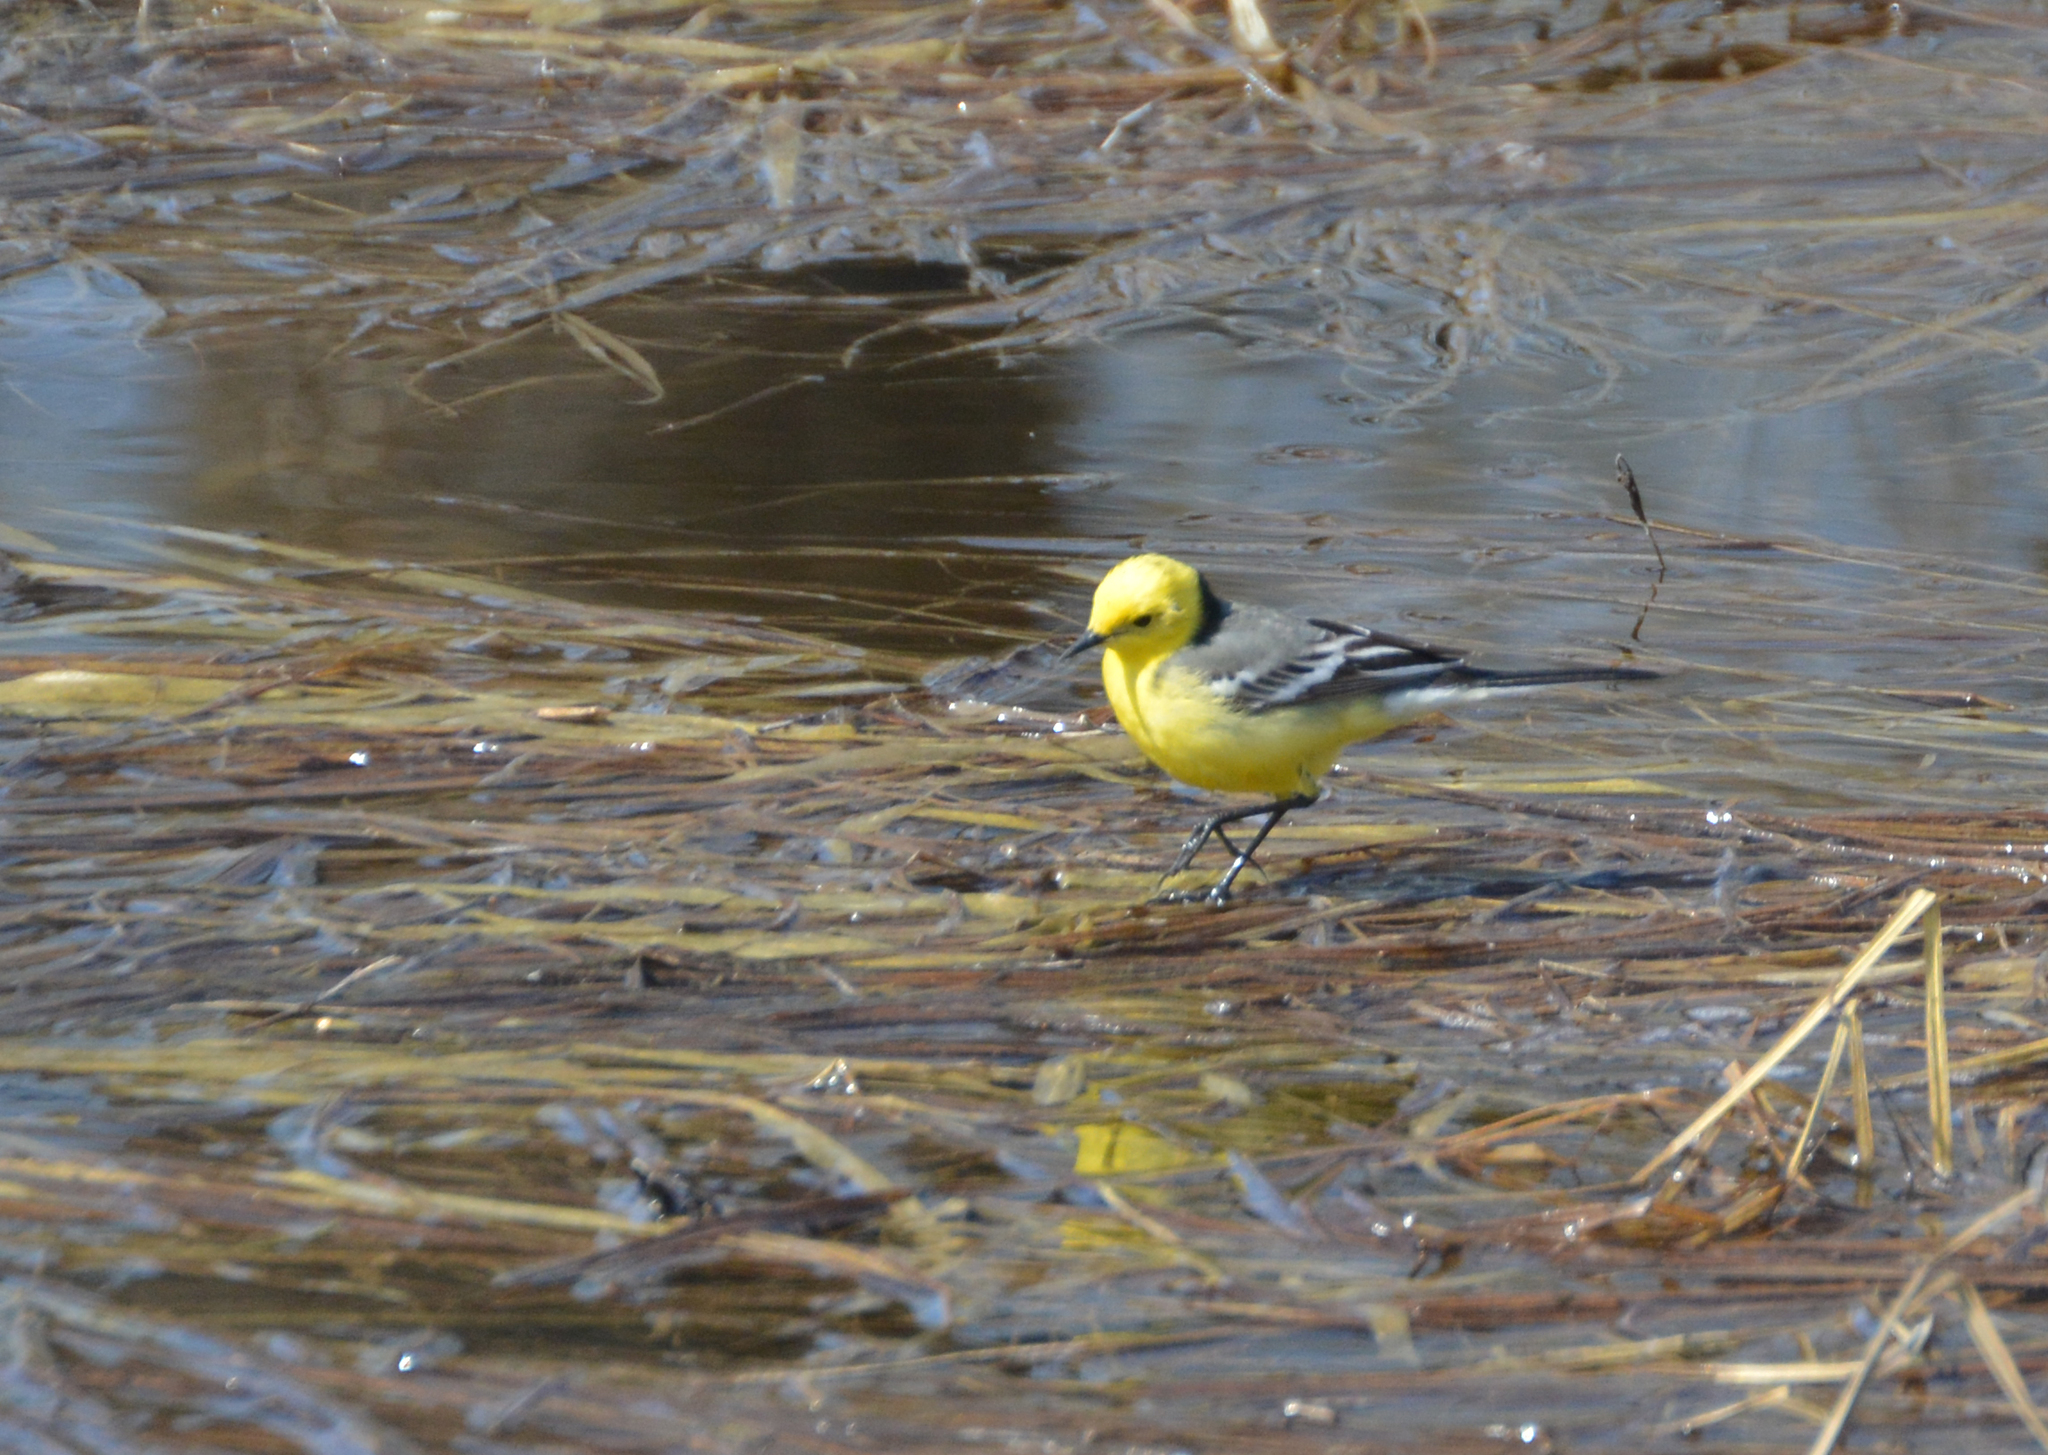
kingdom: Animalia
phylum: Chordata
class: Aves
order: Passeriformes
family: Motacillidae
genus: Motacilla
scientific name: Motacilla citreola
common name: Citrine wagtail
